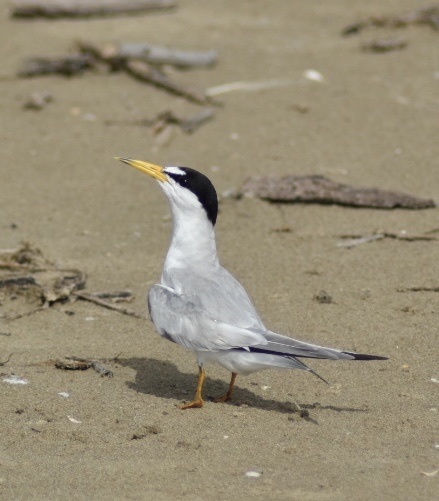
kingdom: Animalia
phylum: Chordata
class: Aves
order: Charadriiformes
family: Laridae
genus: Sternula
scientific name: Sternula antillarum
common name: Least tern
